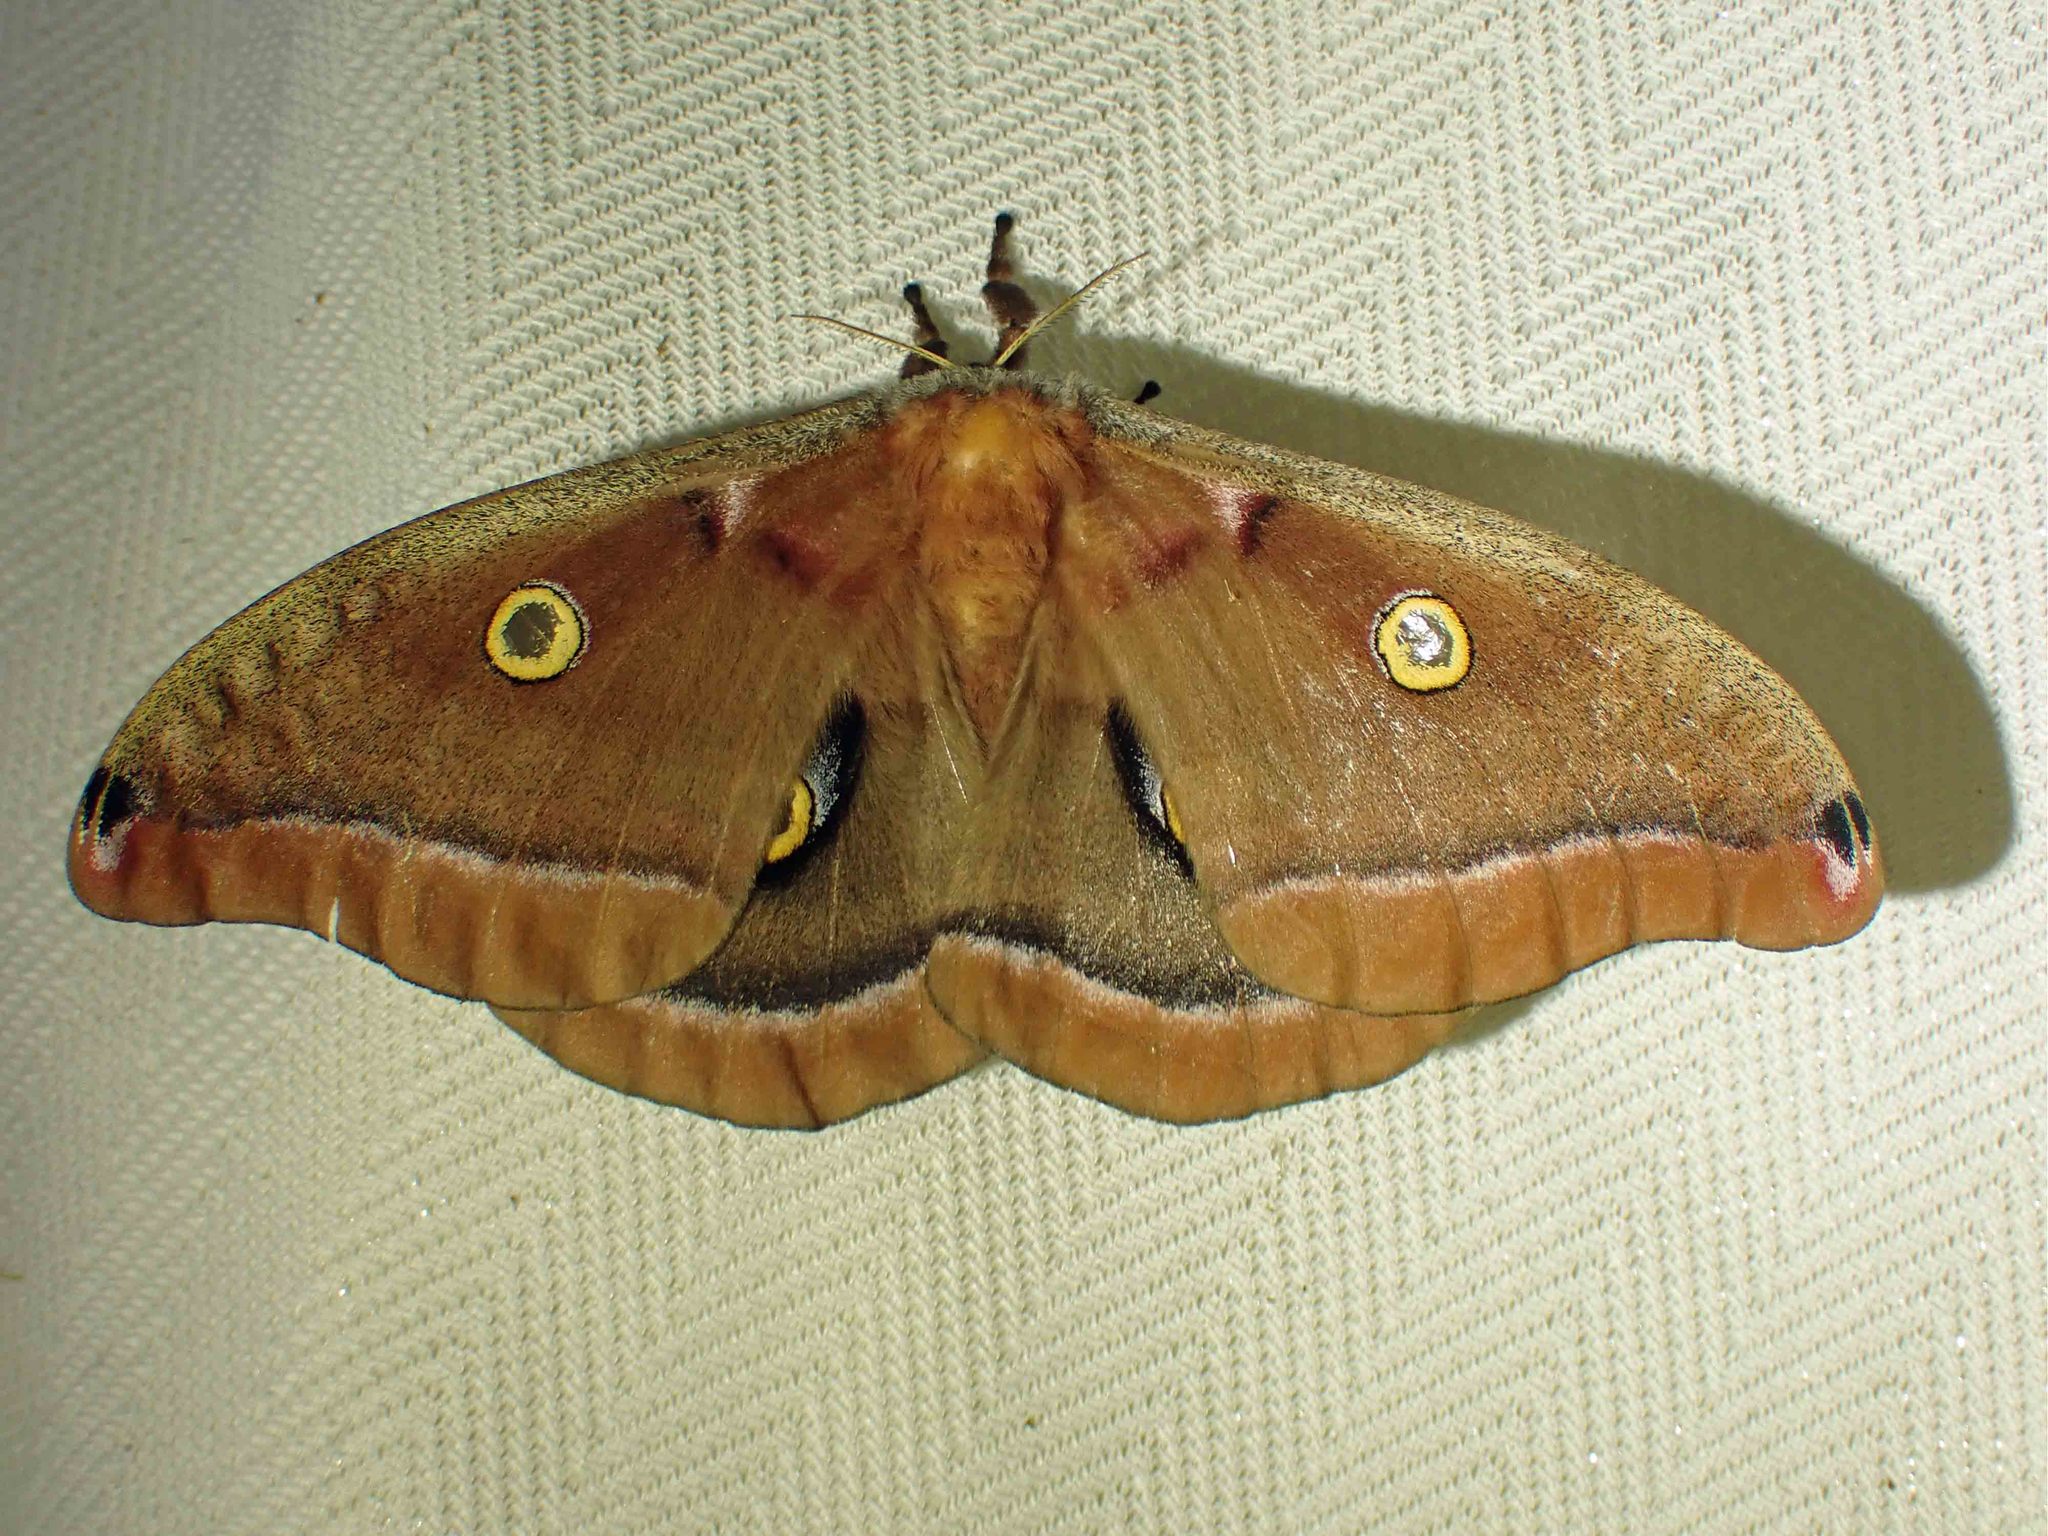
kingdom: Animalia
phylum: Arthropoda
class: Insecta
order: Lepidoptera
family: Saturniidae
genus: Antheraea
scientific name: Antheraea polyphemus
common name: Polyphemus moth
